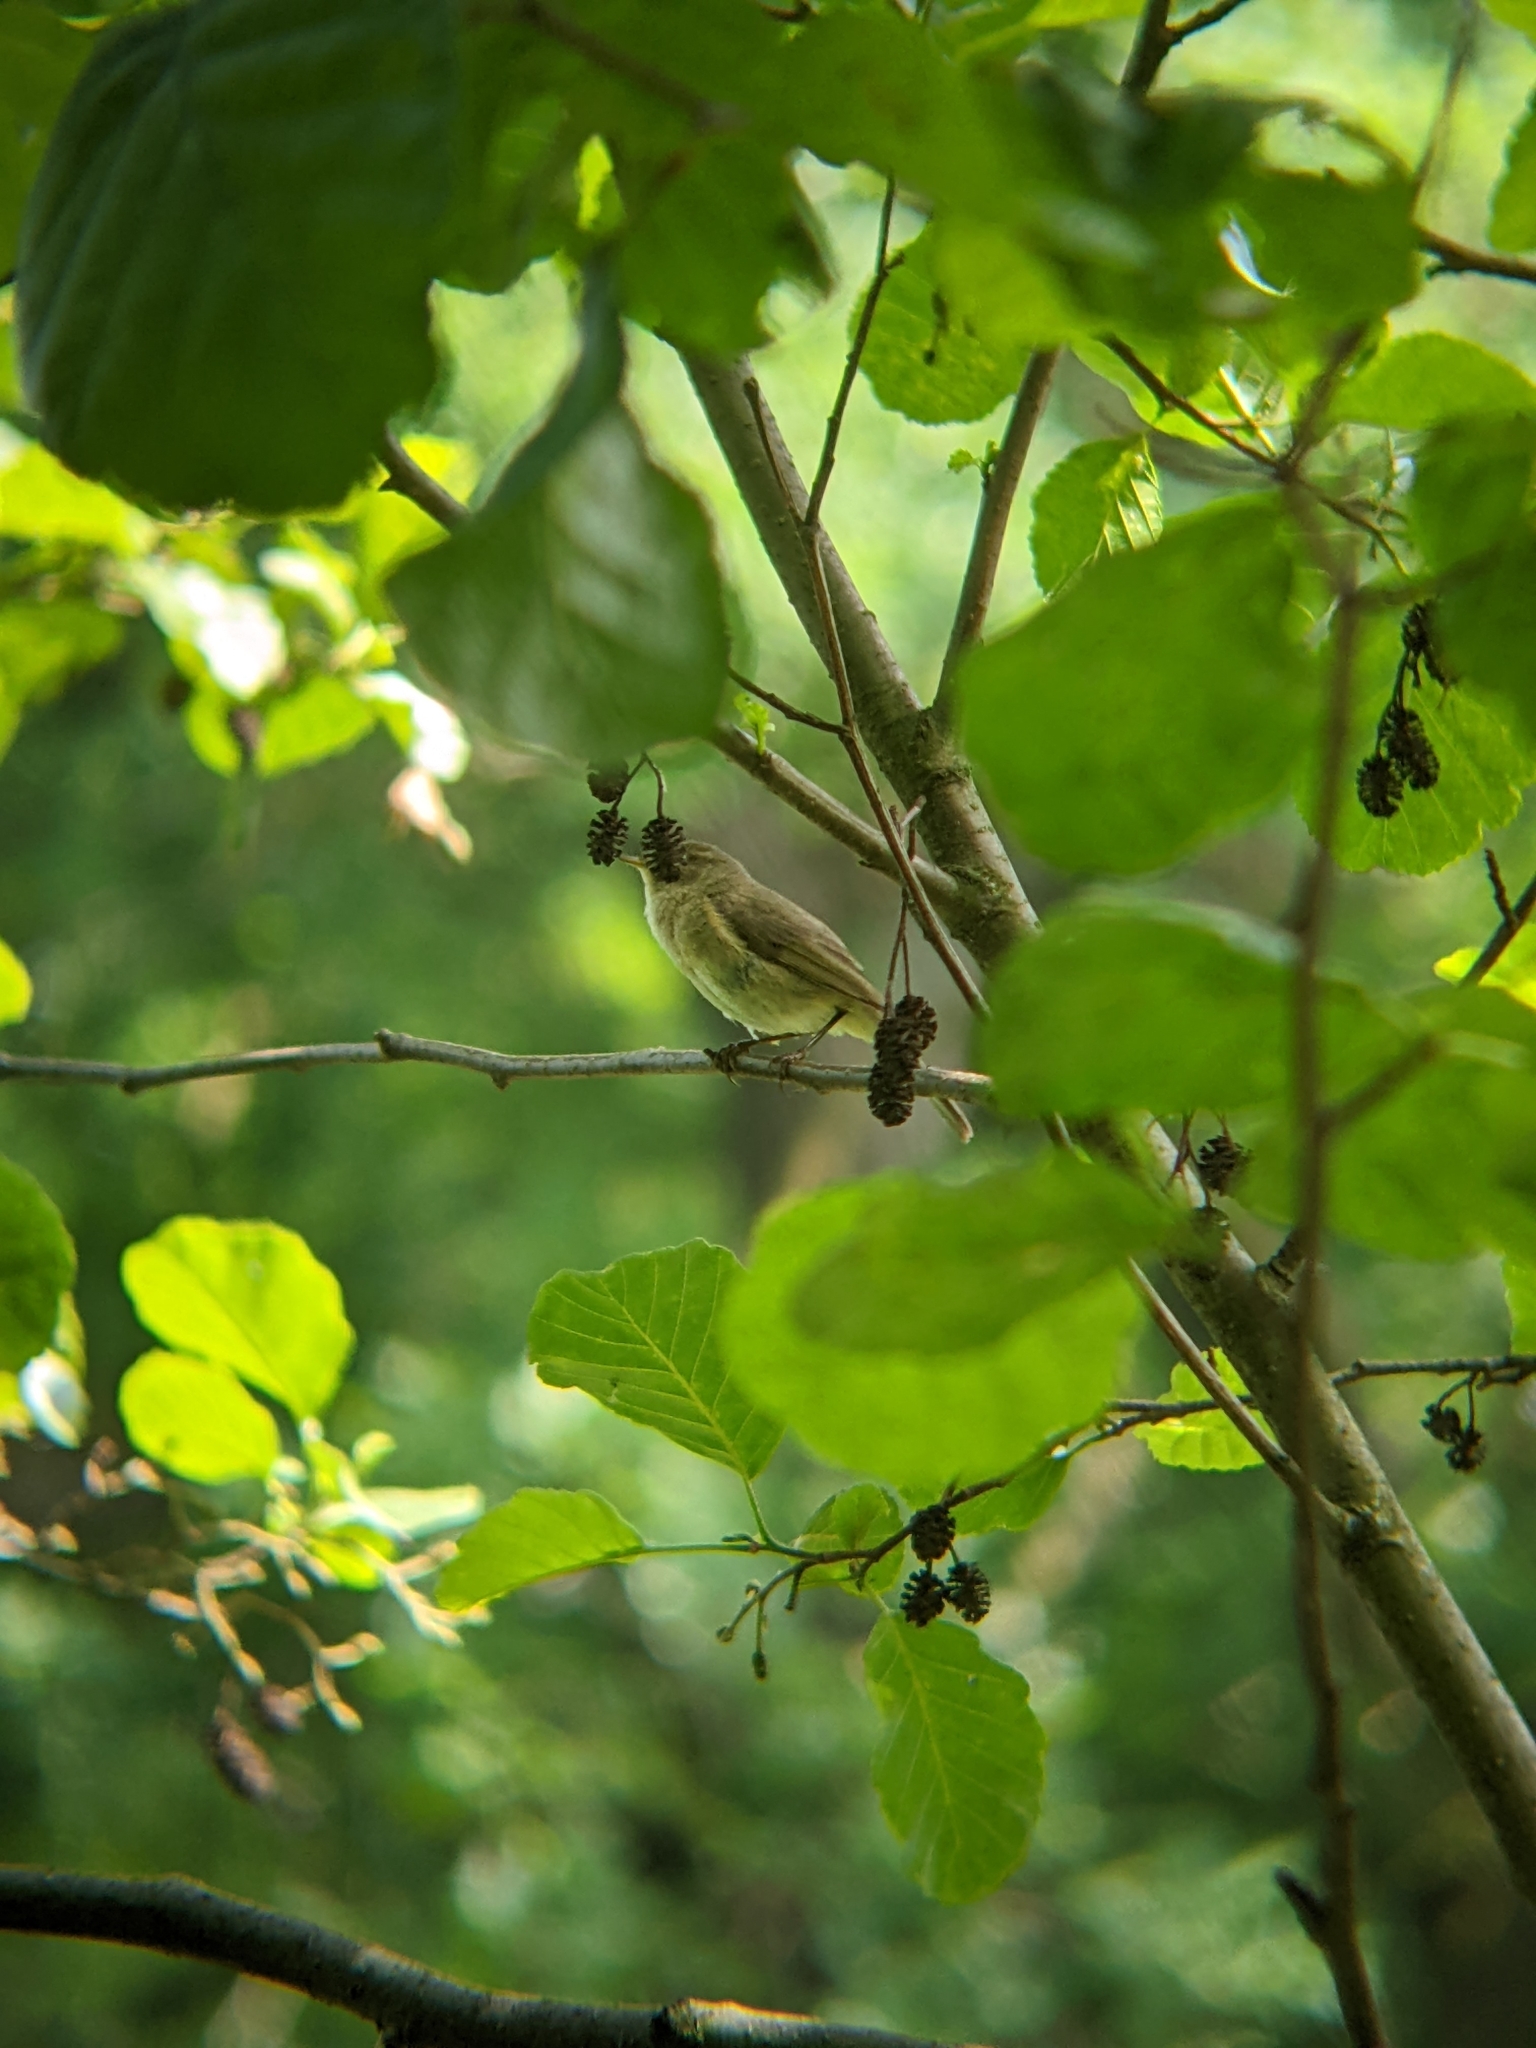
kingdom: Animalia
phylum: Chordata
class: Aves
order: Passeriformes
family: Phylloscopidae
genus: Phylloscopus
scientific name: Phylloscopus collybita
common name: Common chiffchaff
